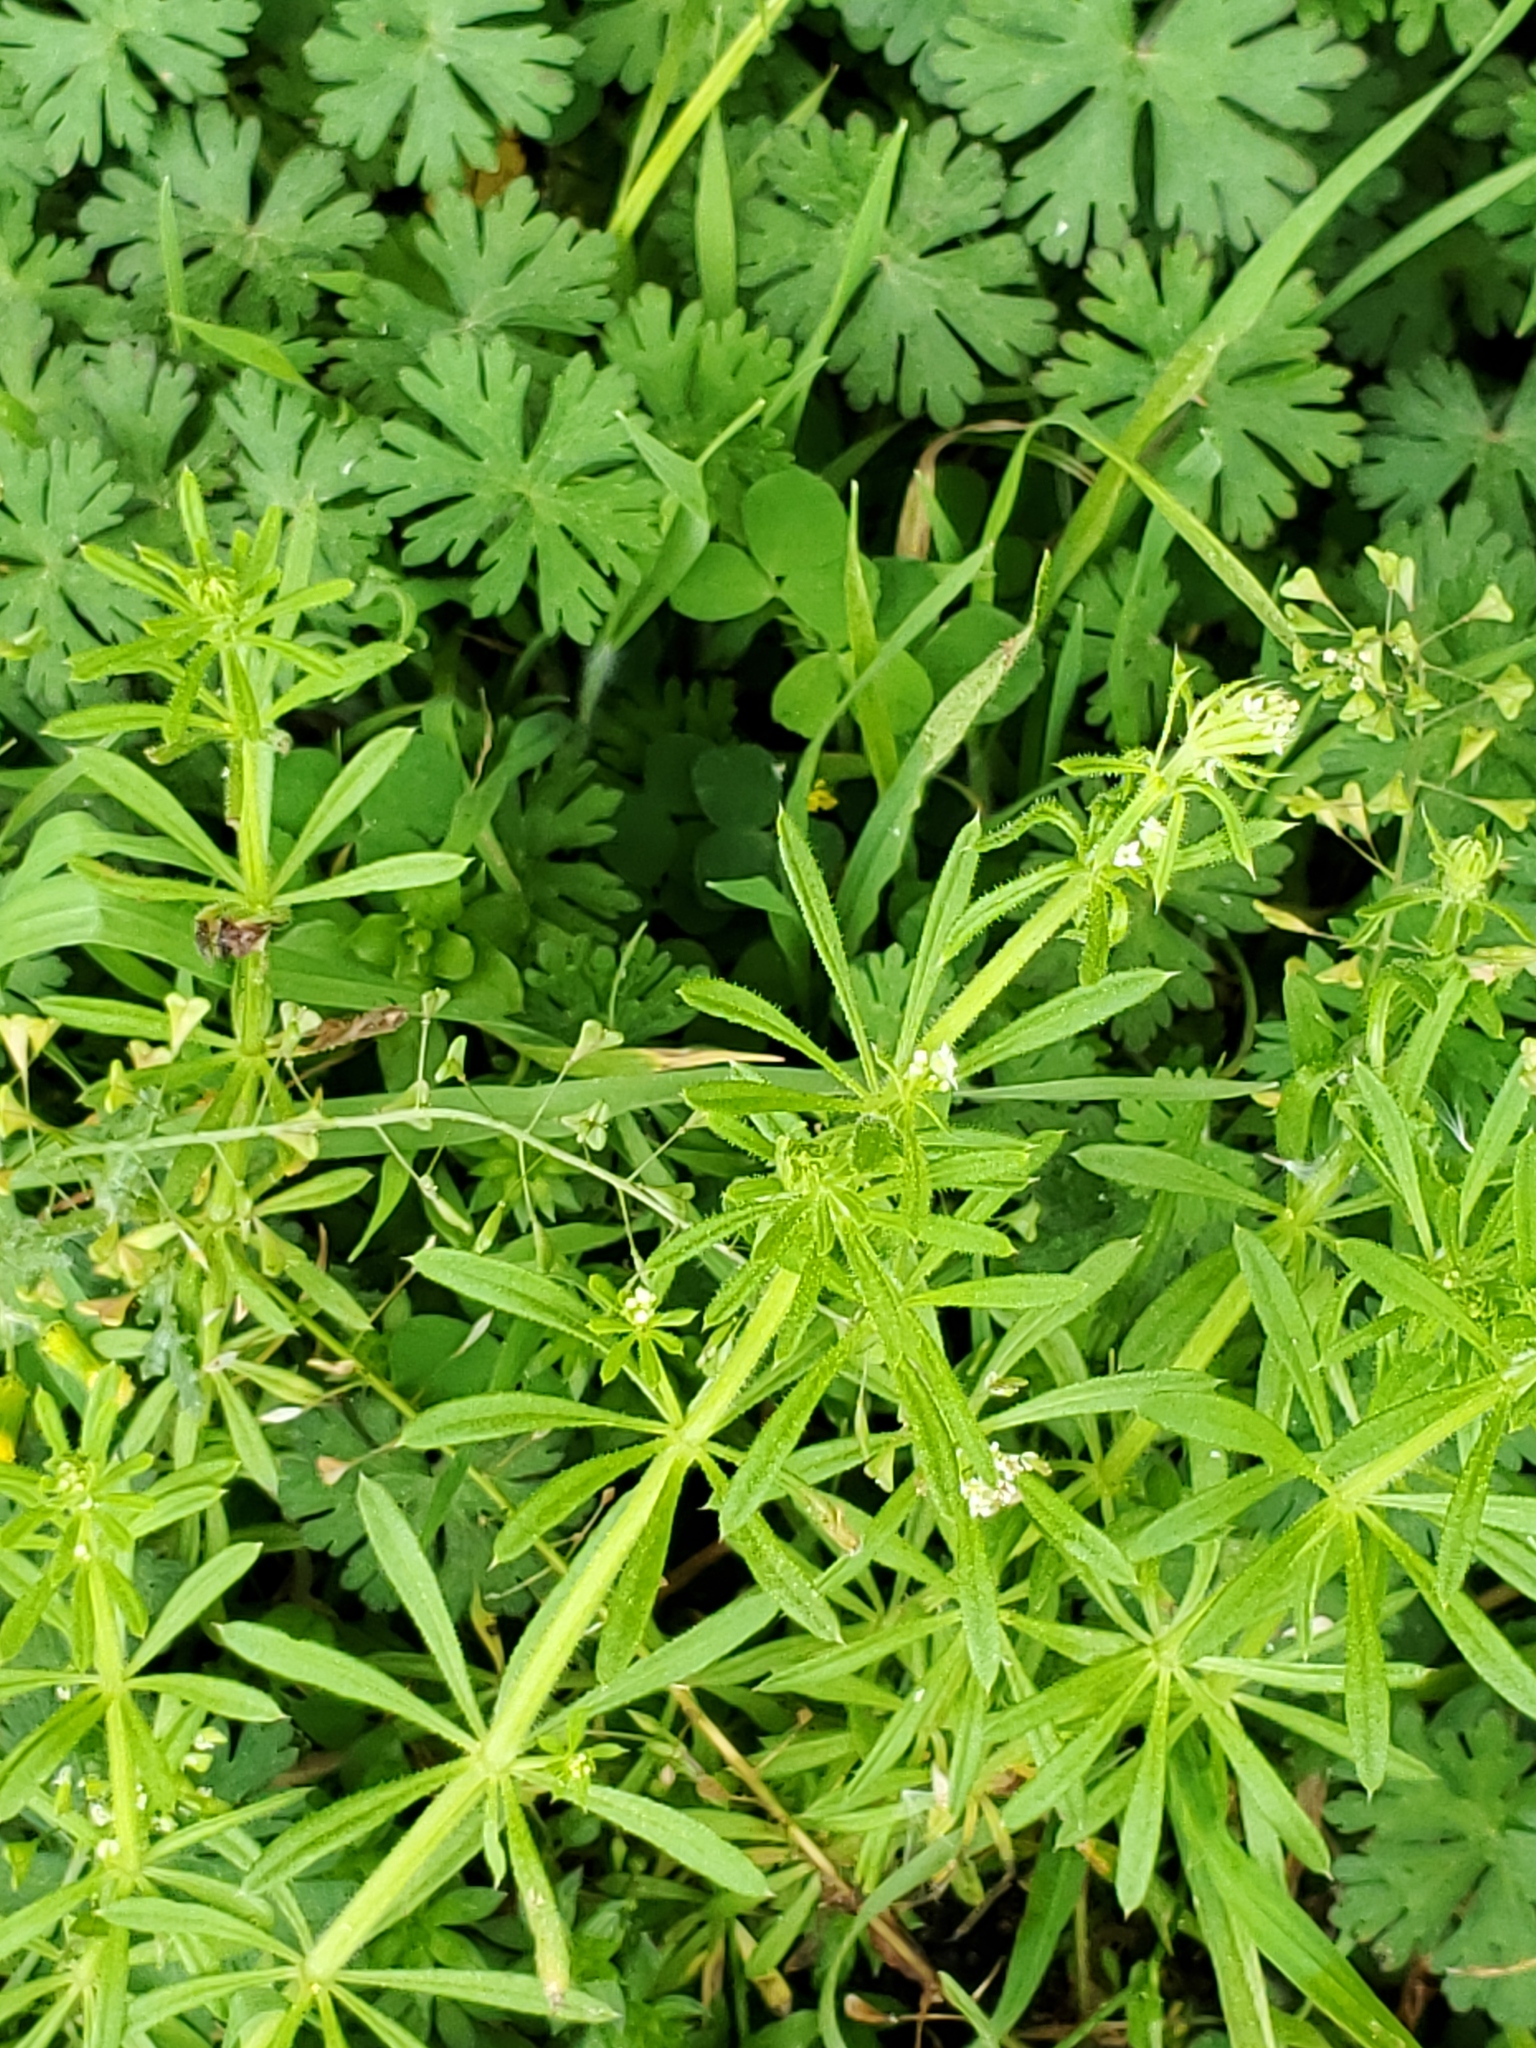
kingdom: Plantae
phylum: Tracheophyta
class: Magnoliopsida
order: Gentianales
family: Rubiaceae
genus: Galium
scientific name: Galium aparine
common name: Cleavers
